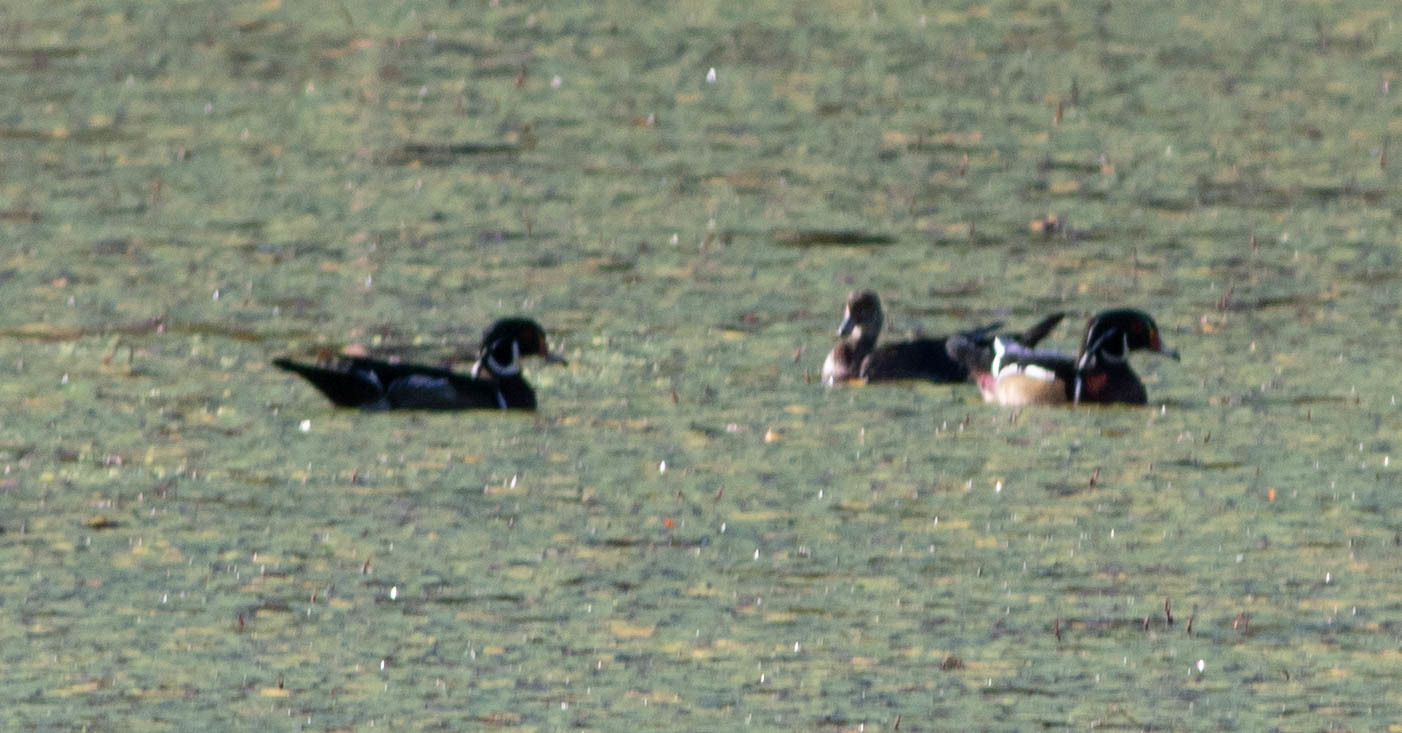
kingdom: Animalia
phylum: Chordata
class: Aves
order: Anseriformes
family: Anatidae
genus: Aix
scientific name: Aix sponsa
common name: Wood duck
